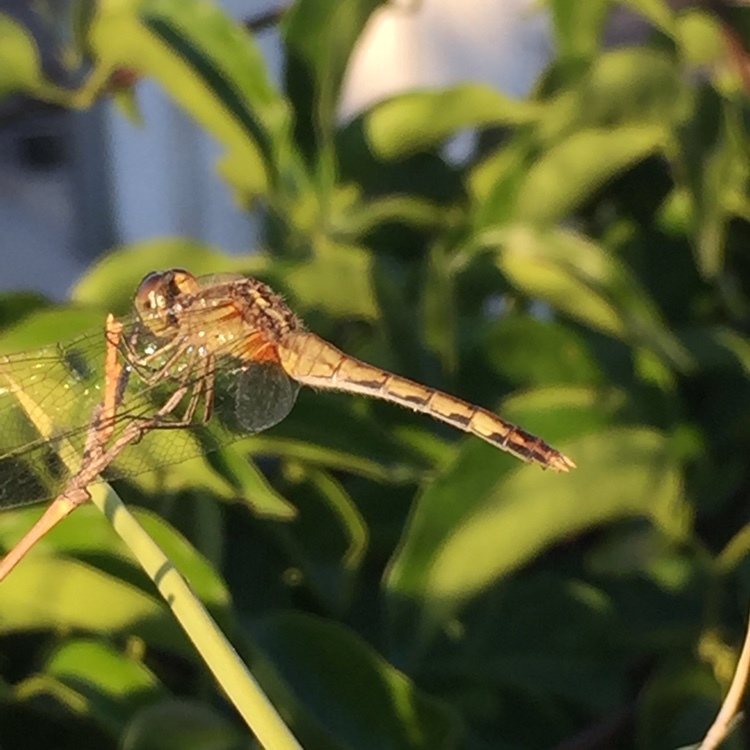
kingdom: Animalia
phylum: Arthropoda
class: Insecta
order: Odonata
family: Libellulidae
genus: Erythrodiplax
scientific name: Erythrodiplax nigricans
